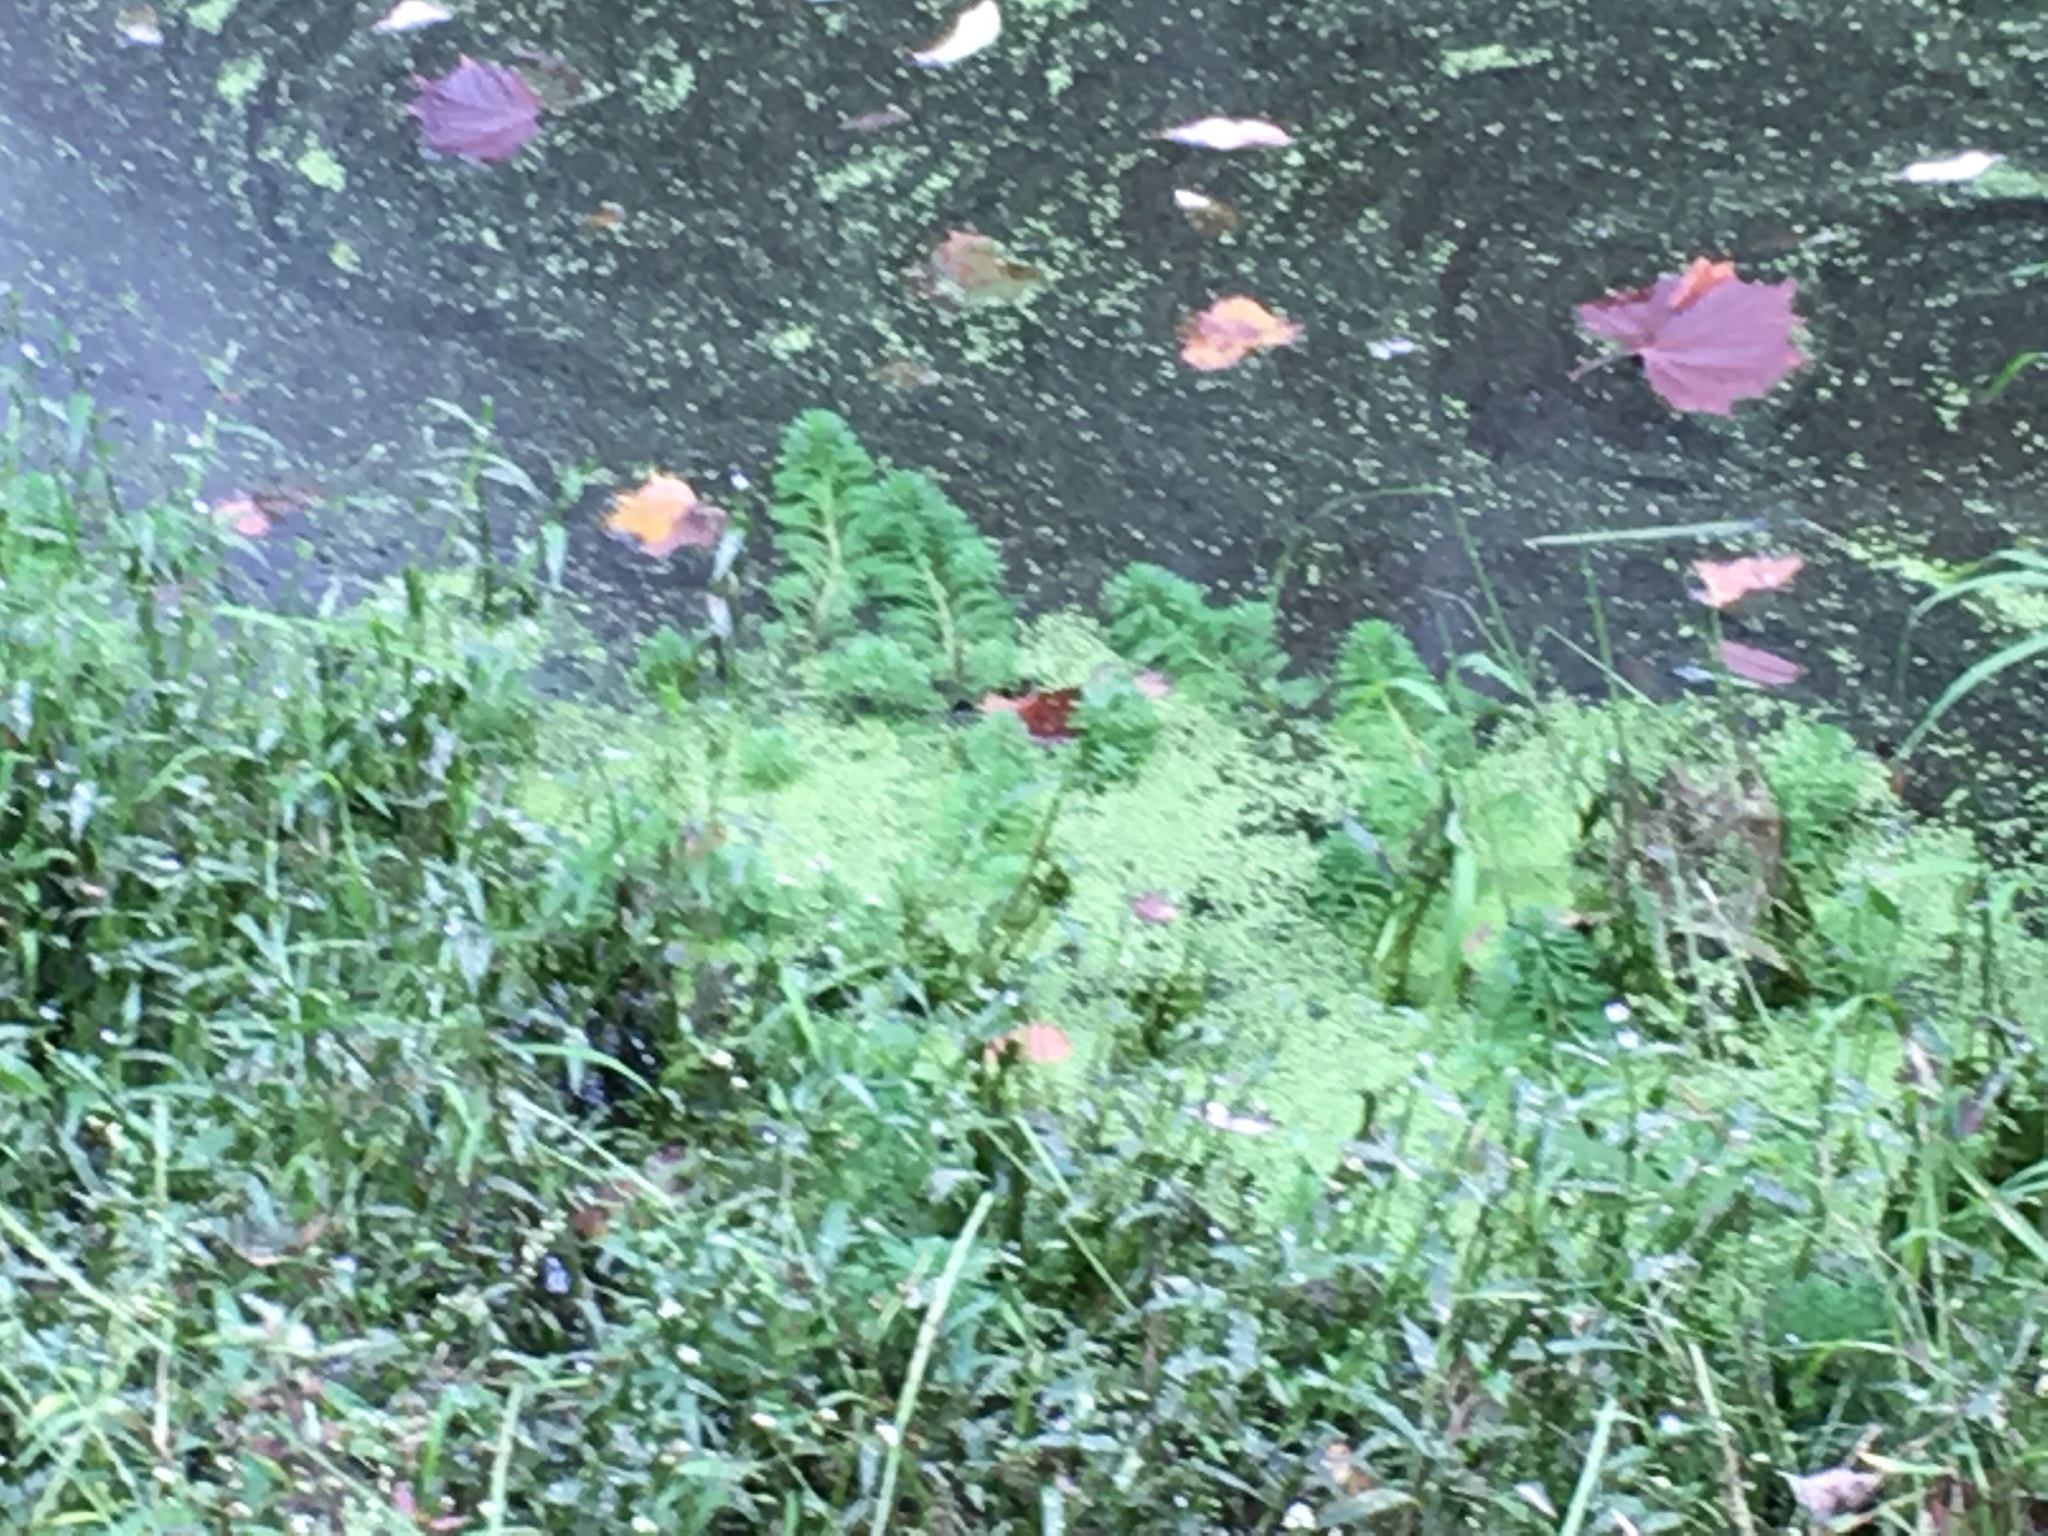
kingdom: Plantae
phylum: Tracheophyta
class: Magnoliopsida
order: Saxifragales
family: Haloragaceae
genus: Myriophyllum
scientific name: Myriophyllum aquaticum
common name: Parrot's feather
